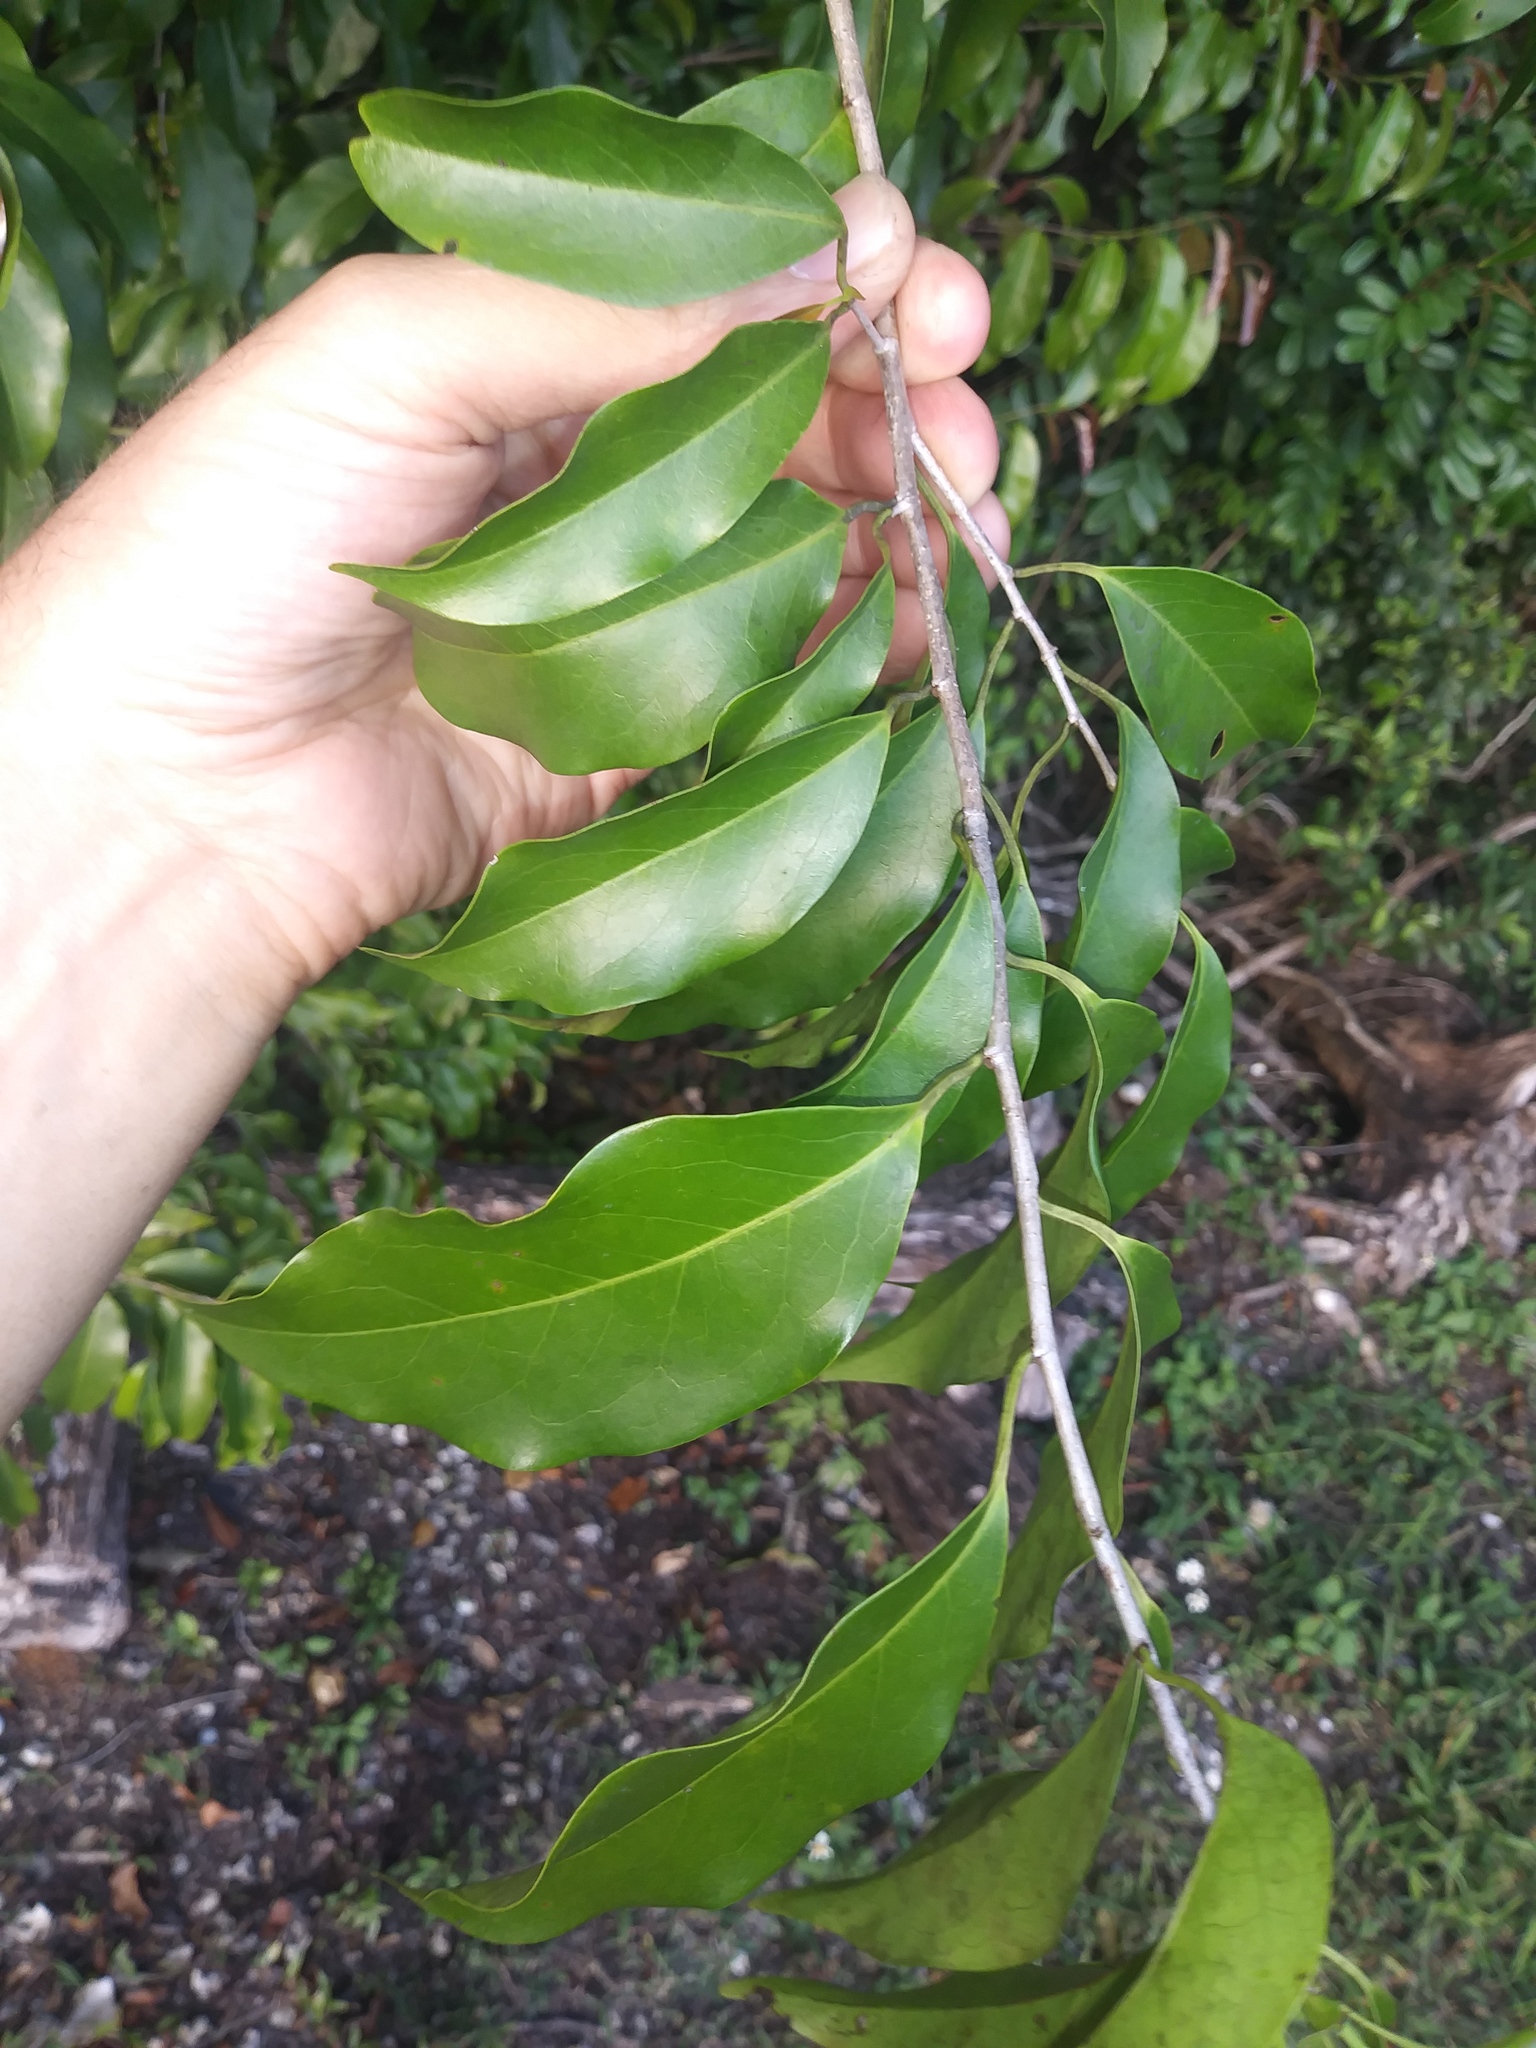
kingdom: Plantae
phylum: Tracheophyta
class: Magnoliopsida
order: Rosales
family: Rosaceae
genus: Prunus
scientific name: Prunus myrtifolia
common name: West indies cherry
